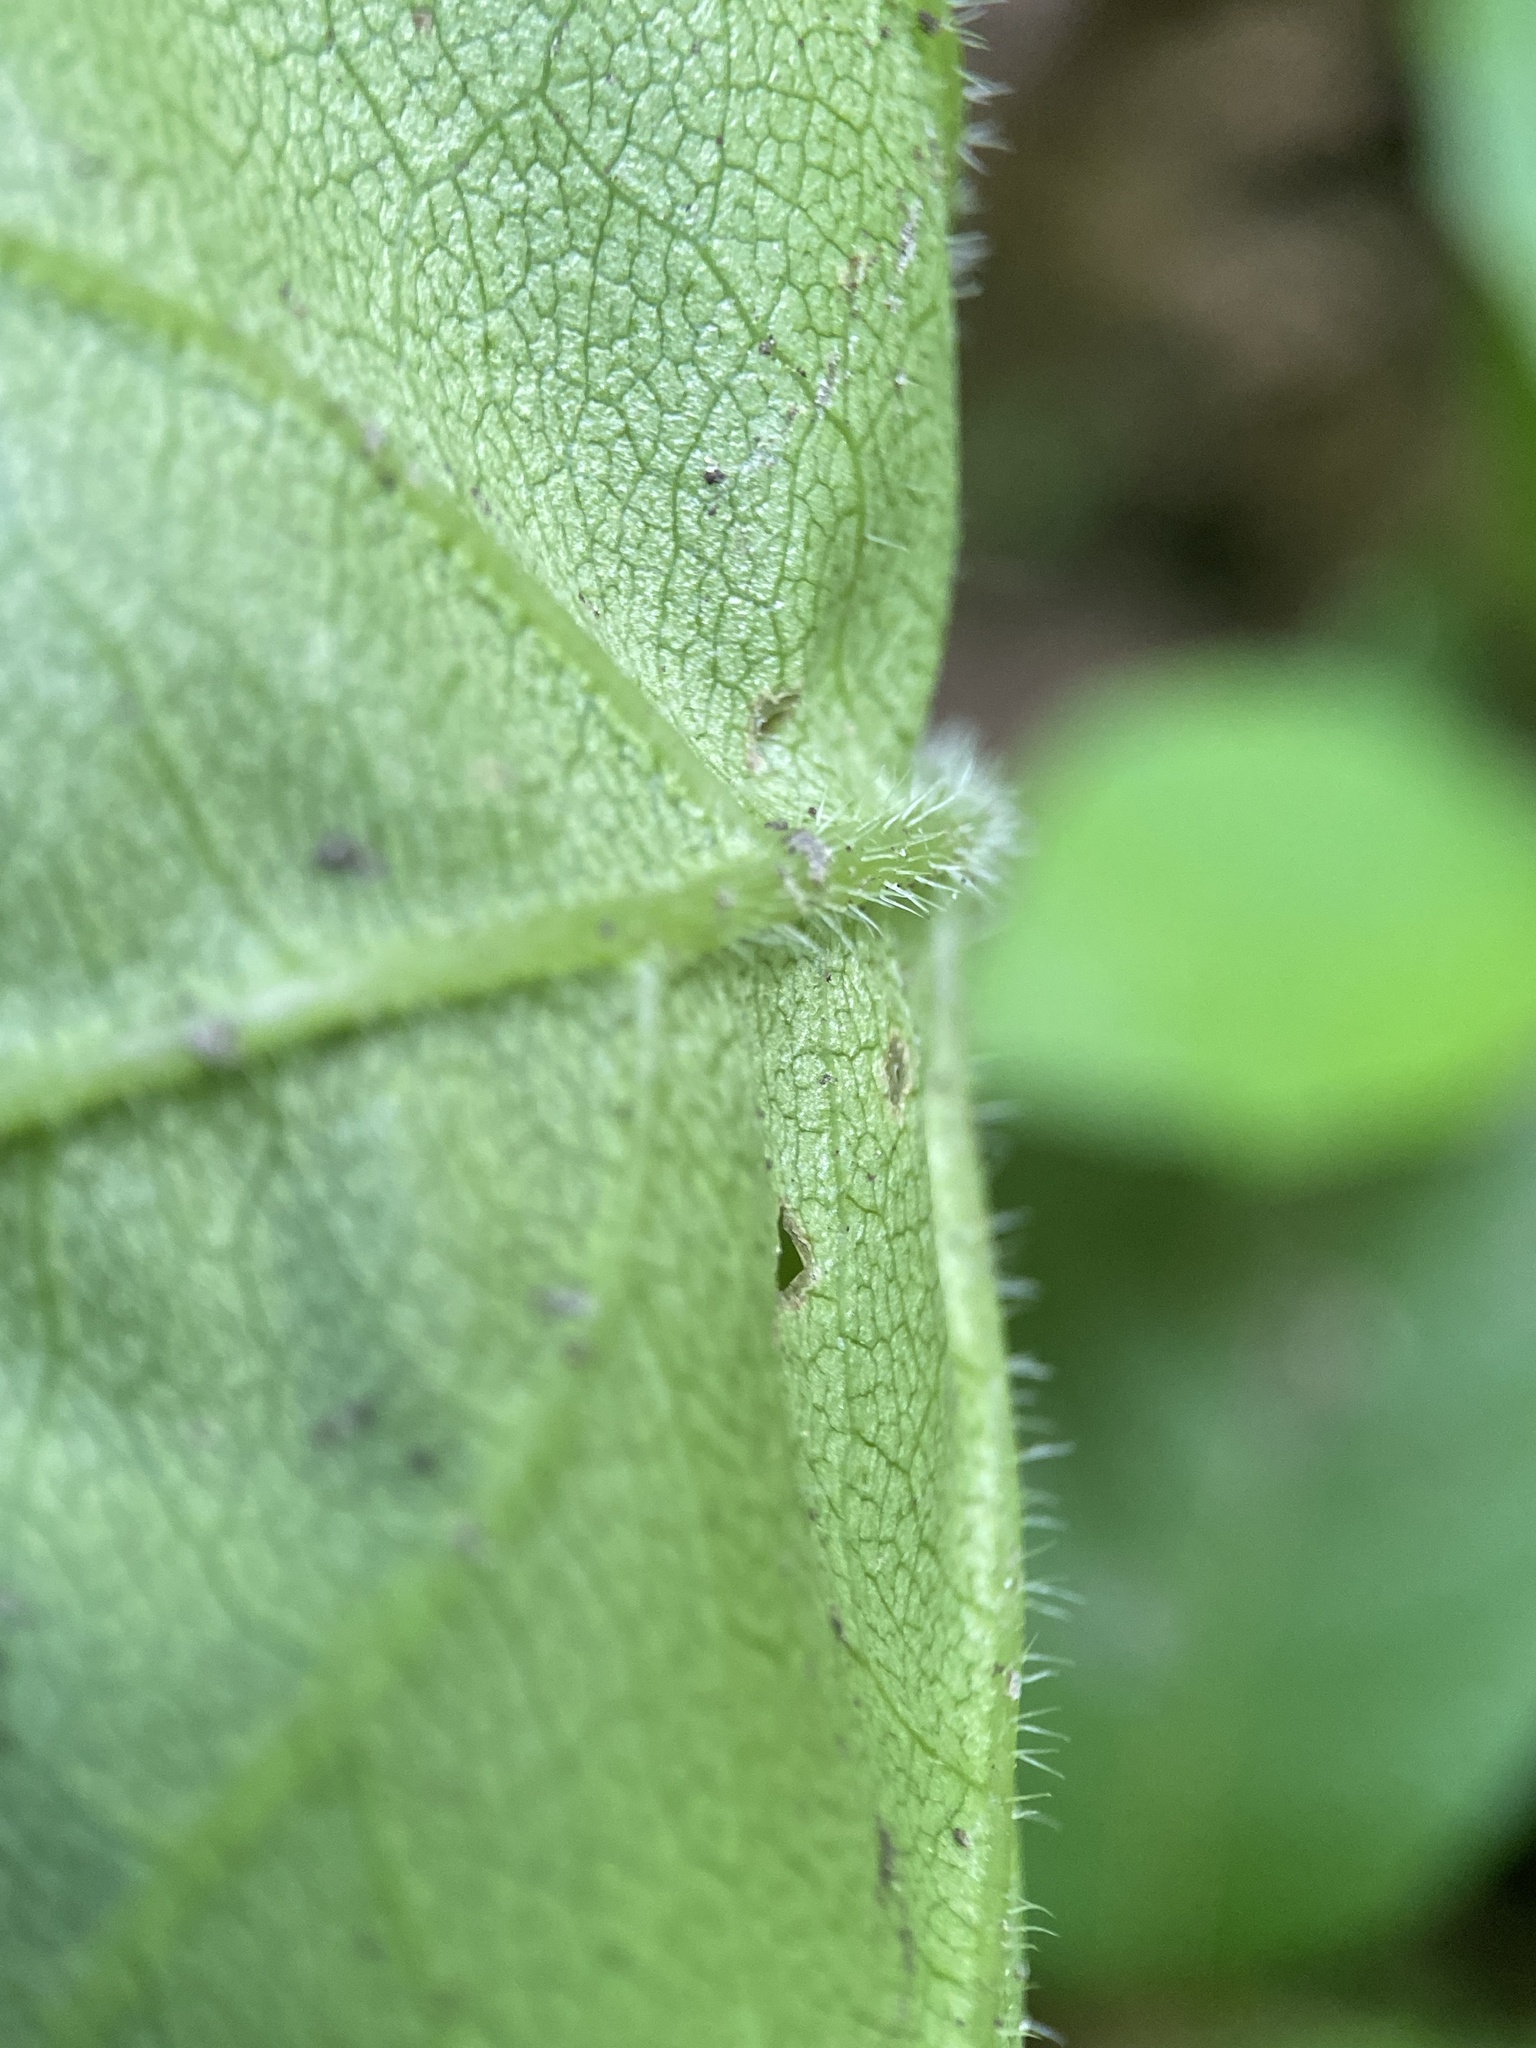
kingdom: Plantae
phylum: Tracheophyta
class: Magnoliopsida
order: Asterales
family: Asteraceae
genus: Eurybia
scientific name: Eurybia macrophylla
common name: Big-leaved aster
